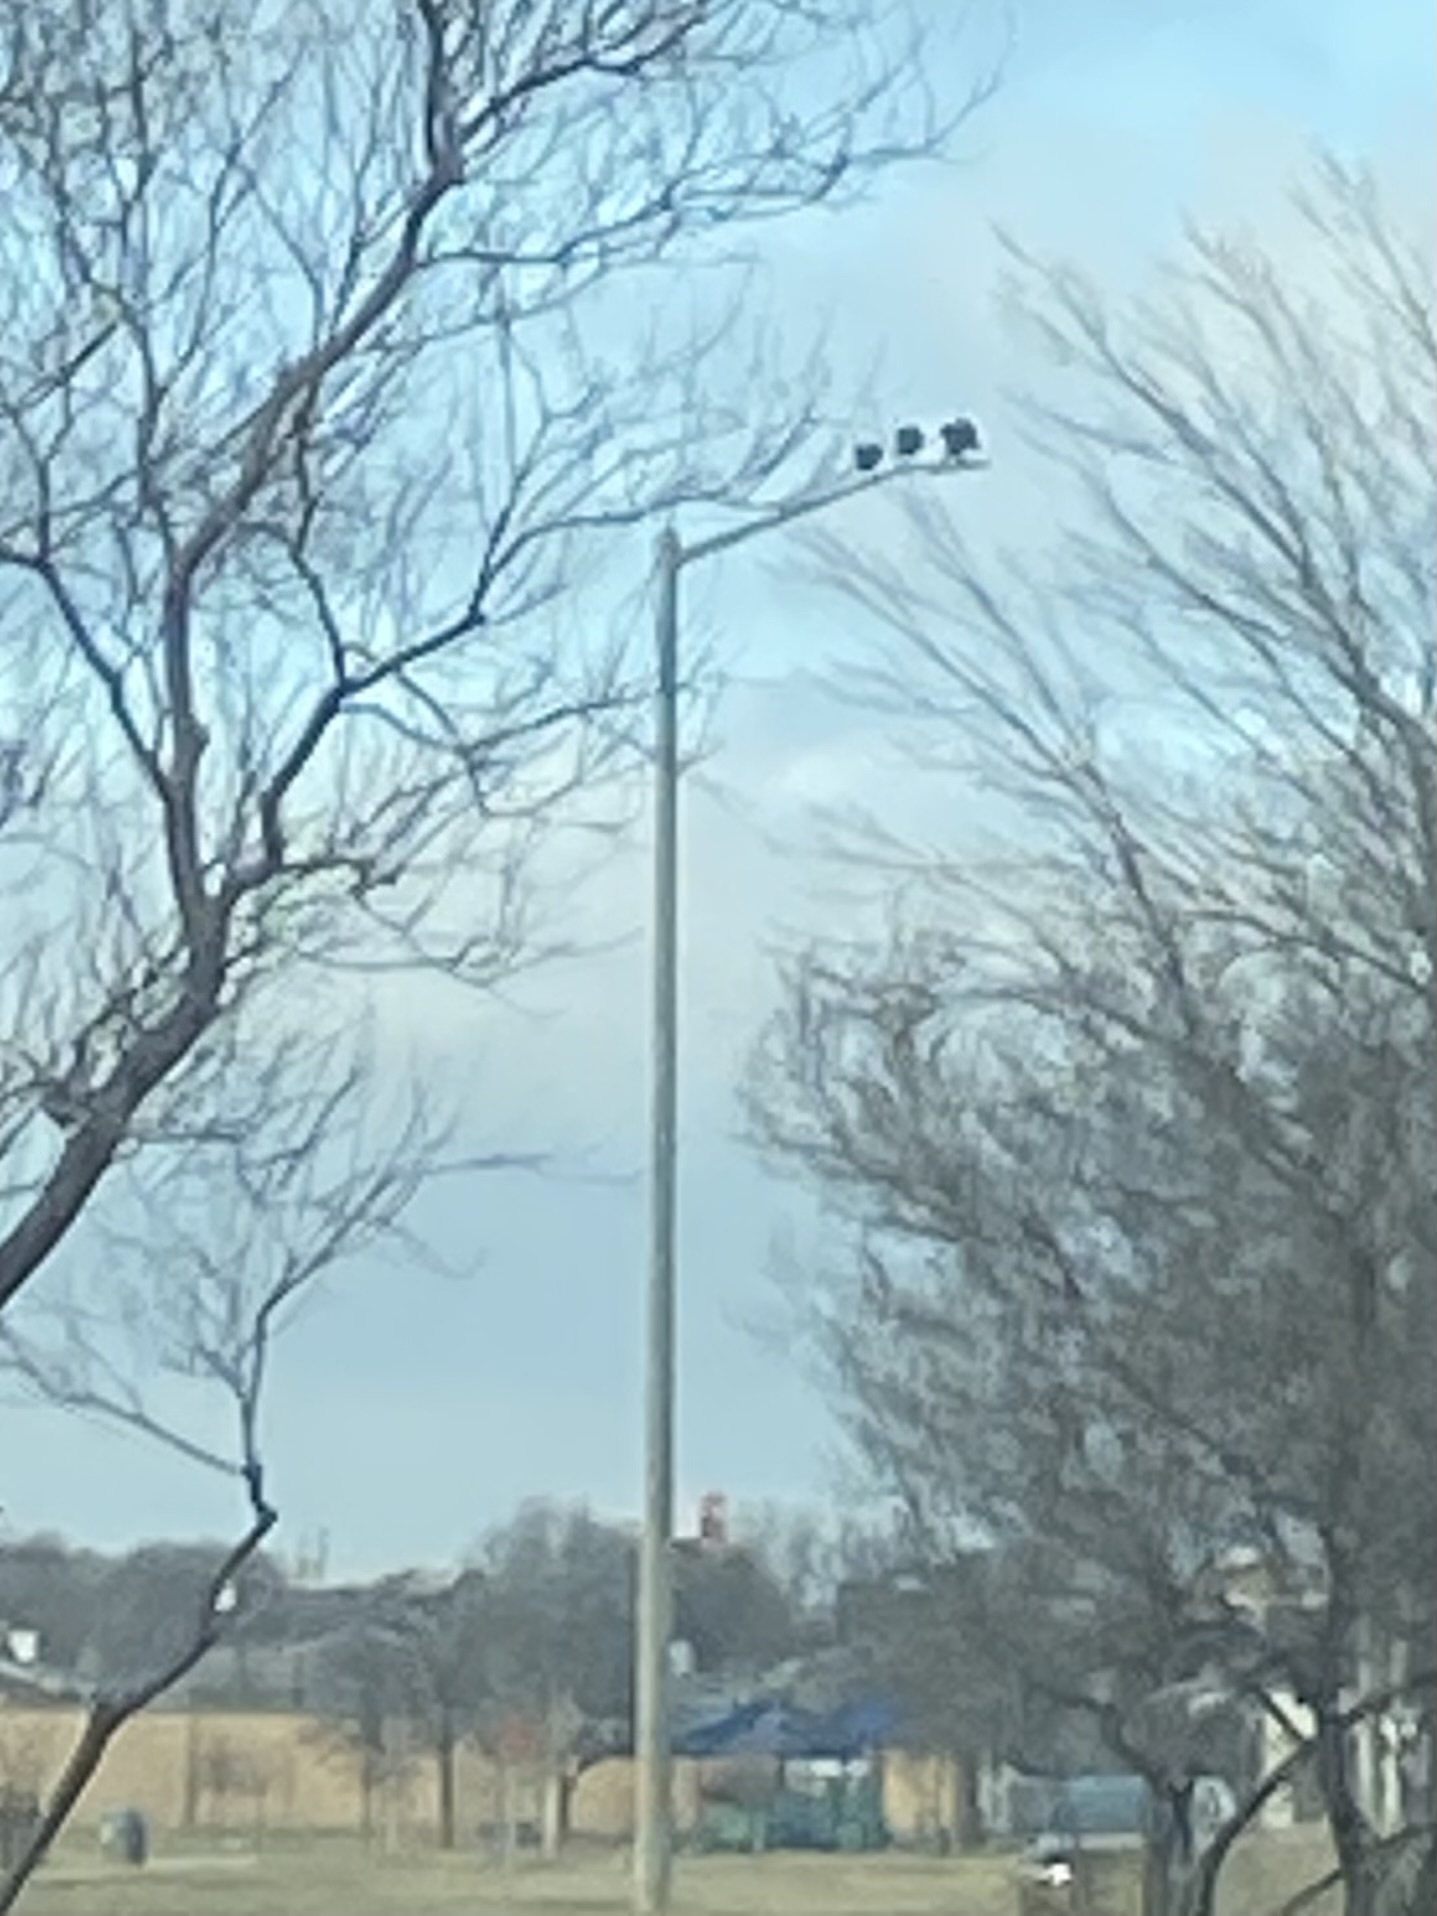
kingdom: Animalia
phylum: Chordata
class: Aves
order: Accipitriformes
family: Cathartidae
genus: Coragyps
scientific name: Coragyps atratus
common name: Black vulture
